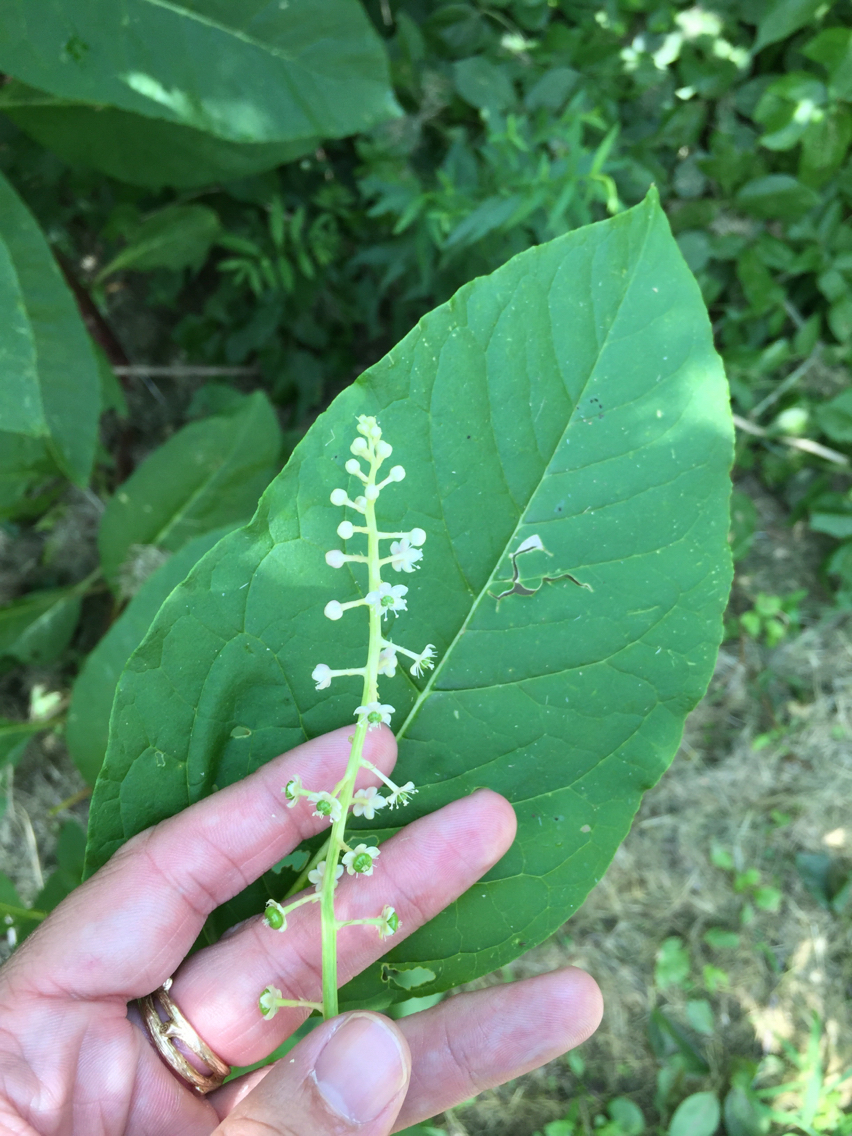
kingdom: Plantae
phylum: Tracheophyta
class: Magnoliopsida
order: Caryophyllales
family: Phytolaccaceae
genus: Phytolacca
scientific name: Phytolacca americana
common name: American pokeweed
